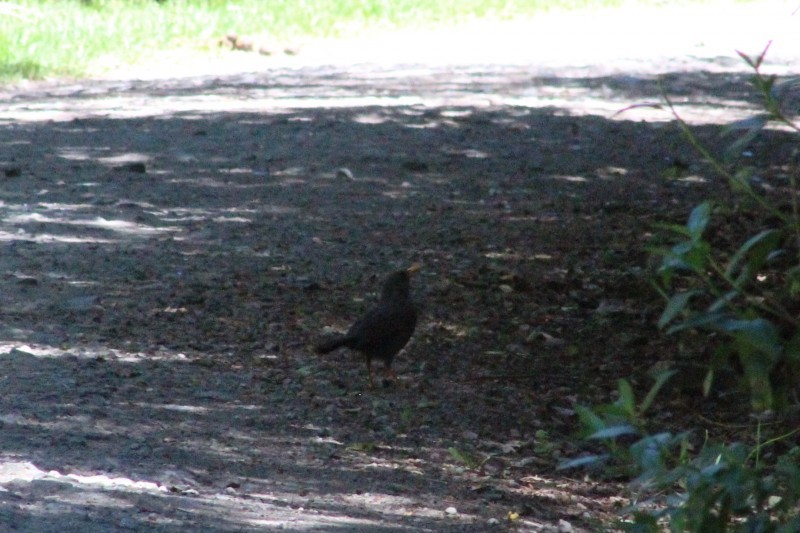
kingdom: Animalia
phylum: Chordata
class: Aves
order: Passeriformes
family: Turdidae
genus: Turdus
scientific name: Turdus fuscater
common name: Great thrush
